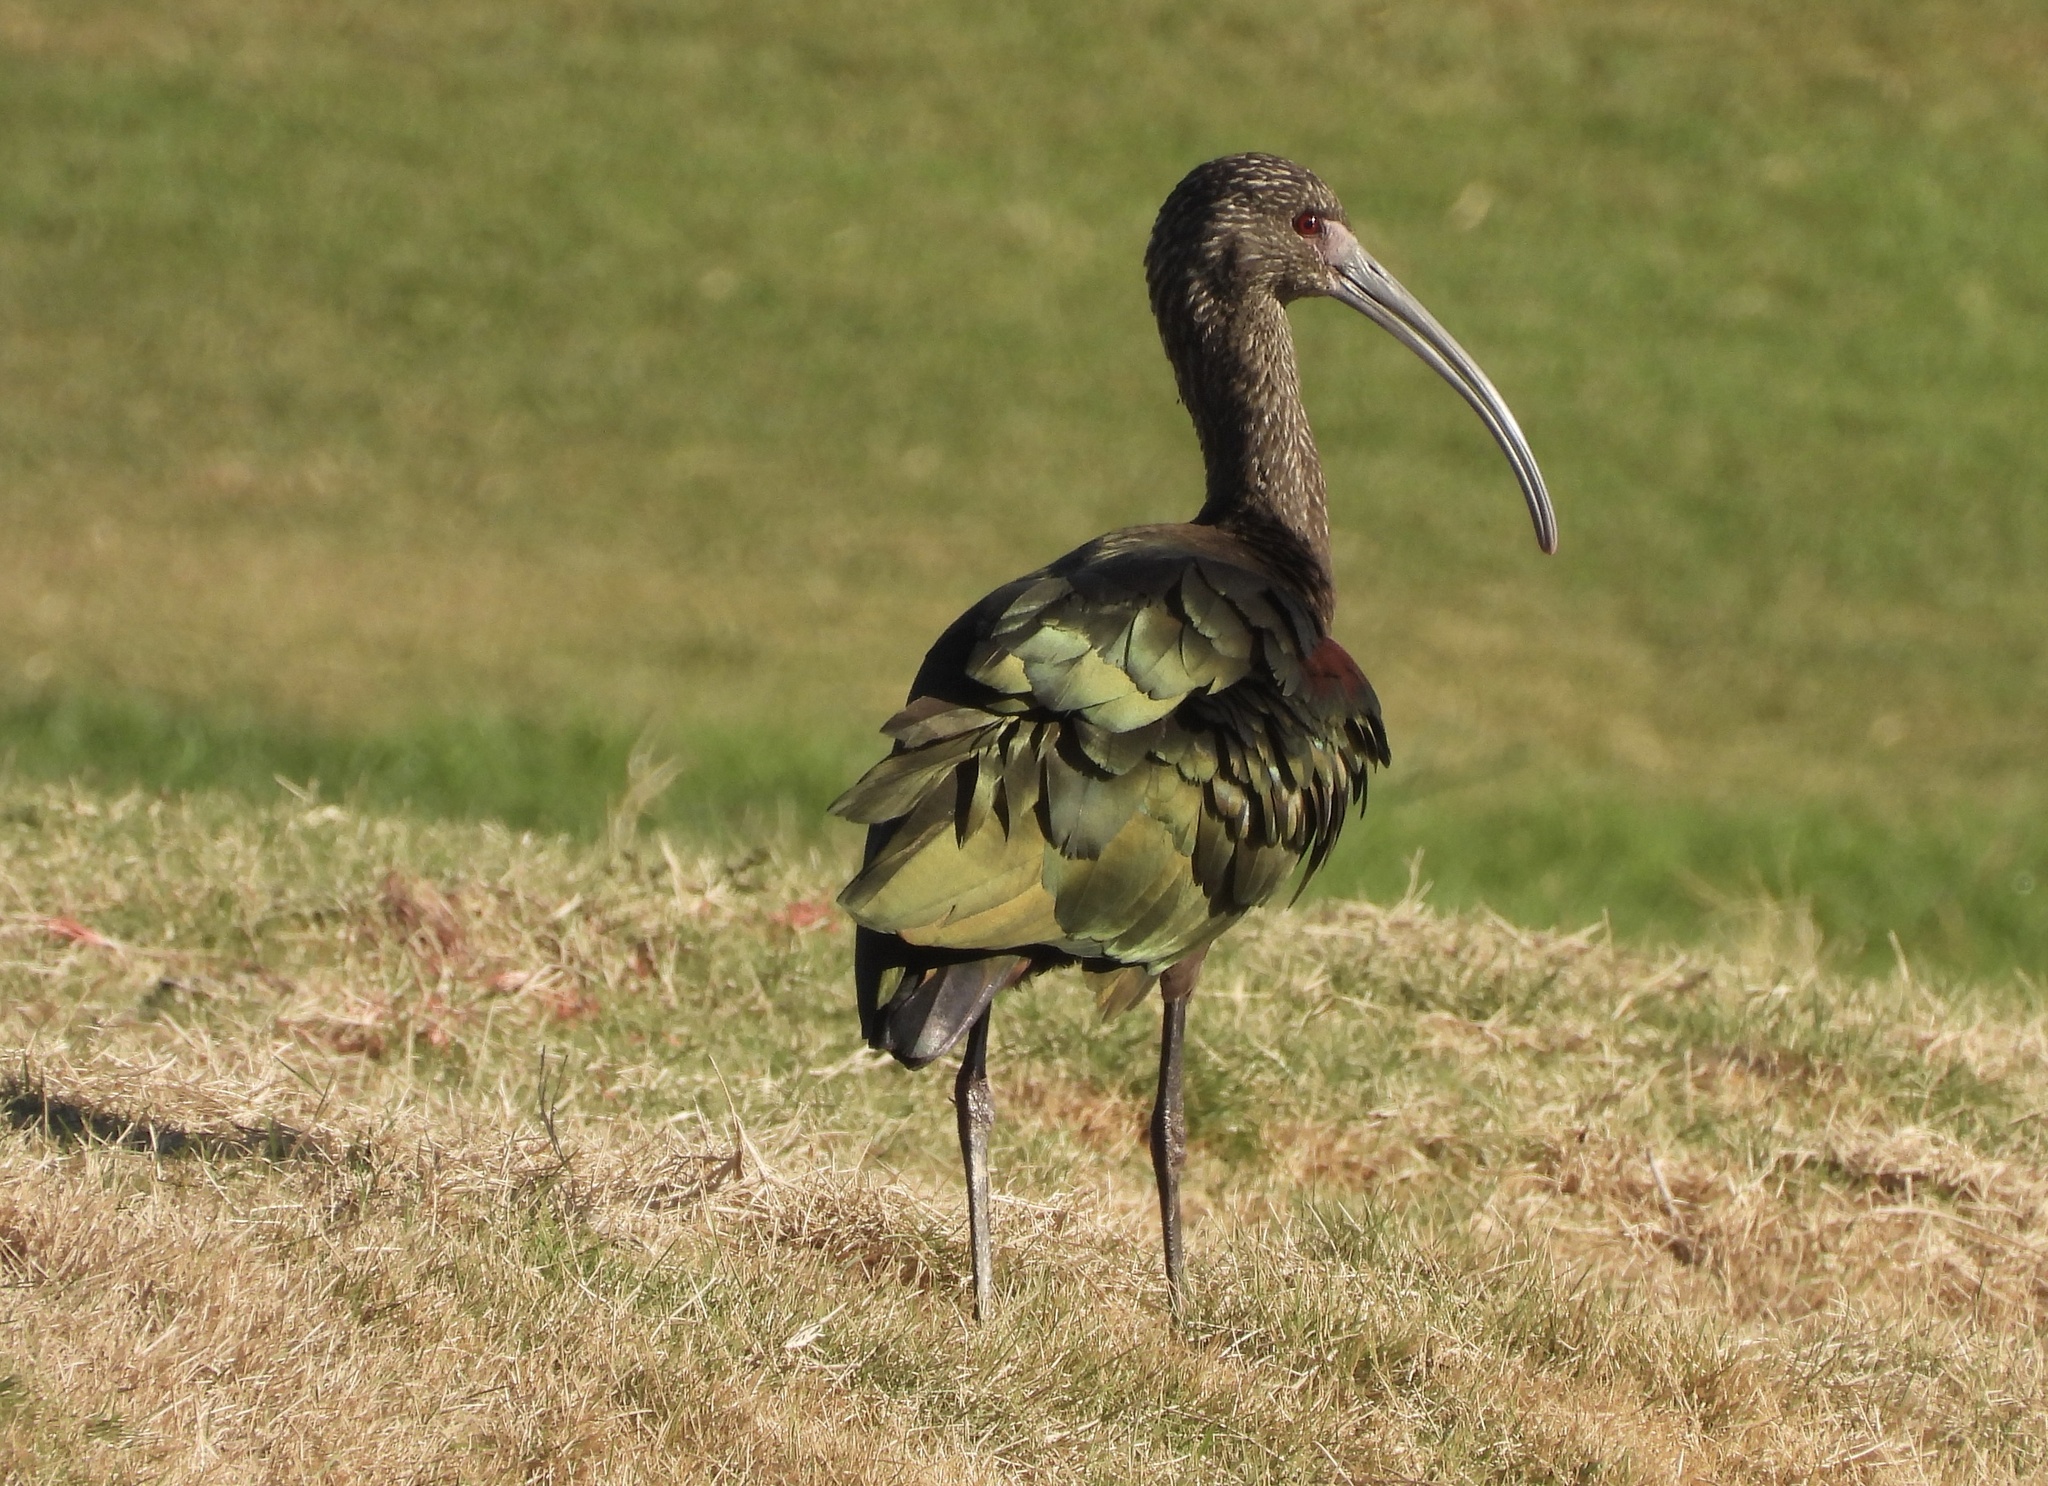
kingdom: Animalia
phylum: Chordata
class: Aves
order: Pelecaniformes
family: Threskiornithidae
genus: Plegadis
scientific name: Plegadis chihi
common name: White-faced ibis
